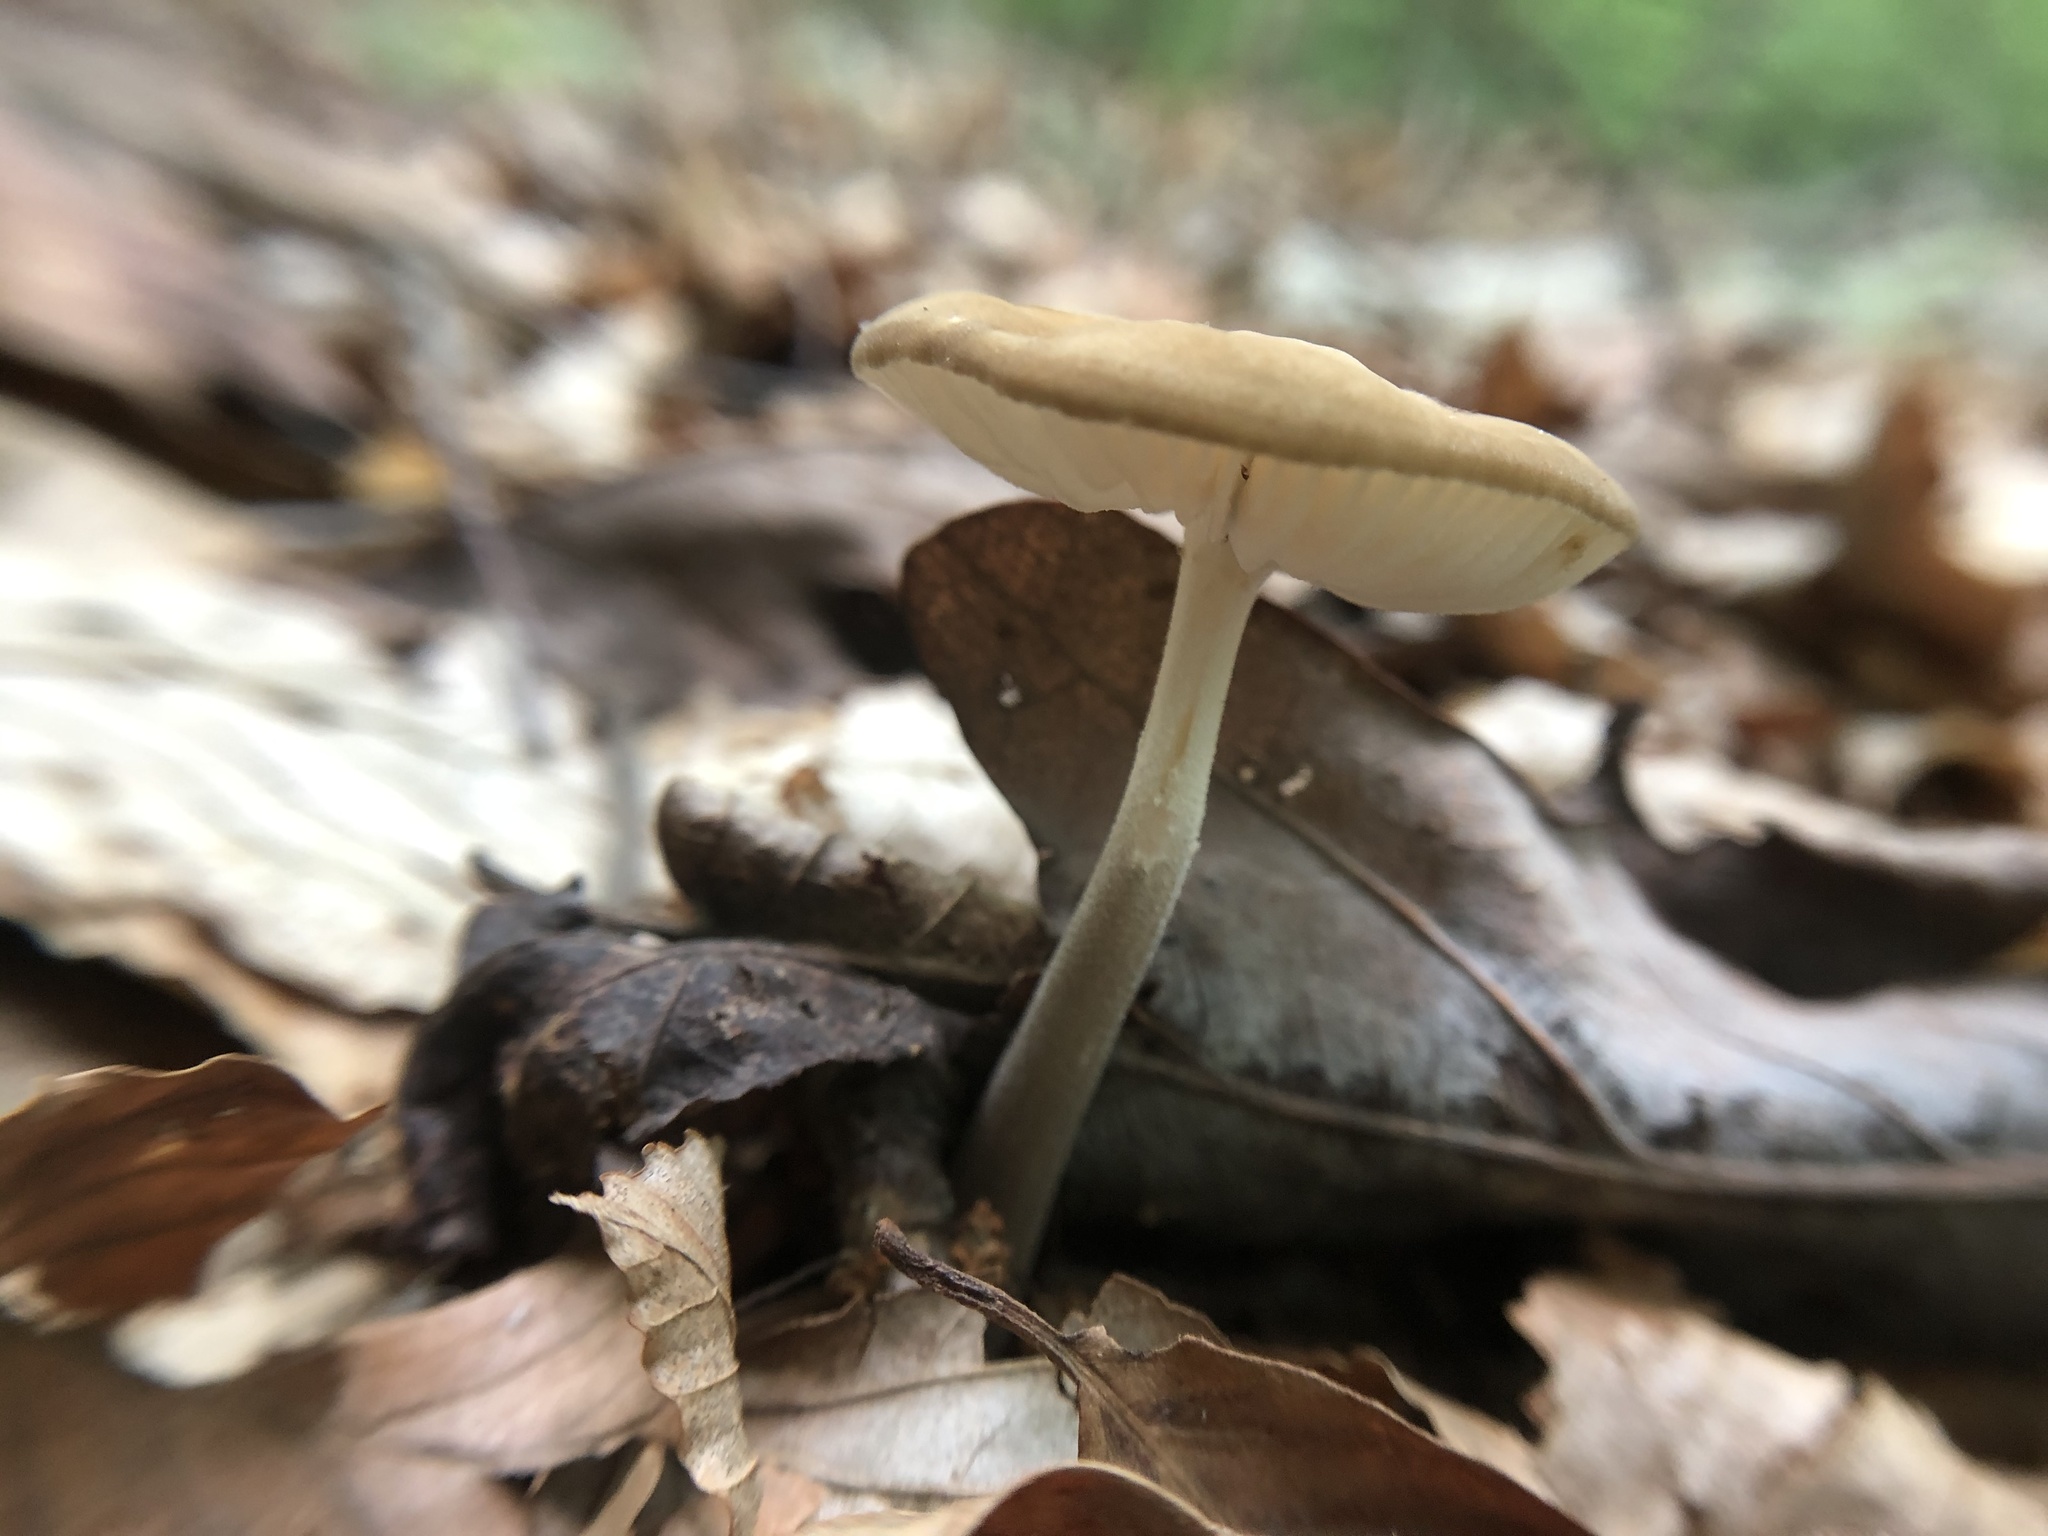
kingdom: Fungi
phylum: Basidiomycota
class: Agaricomycetes
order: Agaricales
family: Physalacriaceae
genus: Hymenopellis
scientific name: Hymenopellis furfuracea
